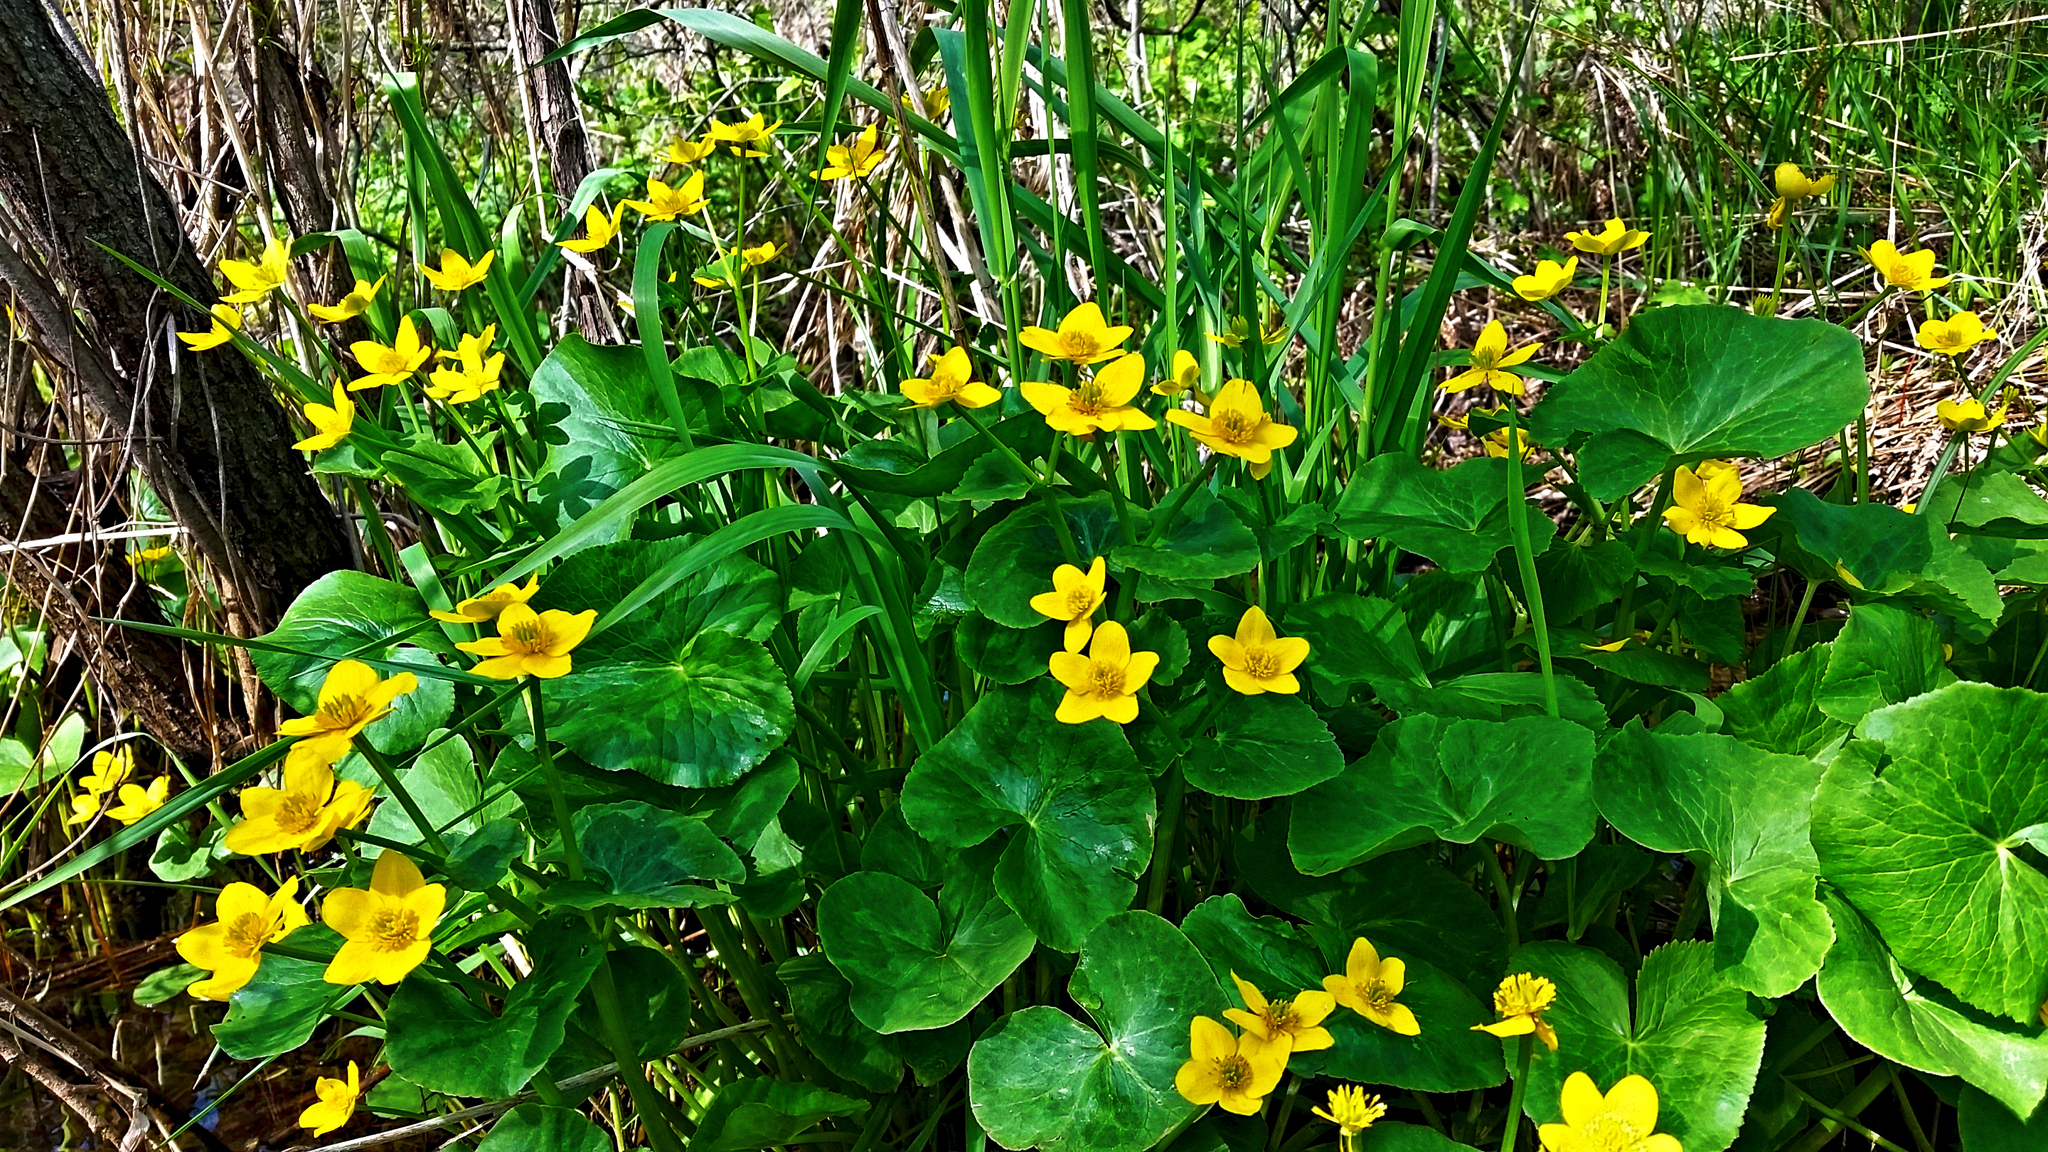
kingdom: Plantae
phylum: Tracheophyta
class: Magnoliopsida
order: Ranunculales
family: Ranunculaceae
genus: Caltha
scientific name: Caltha palustris
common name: Marsh marigold
